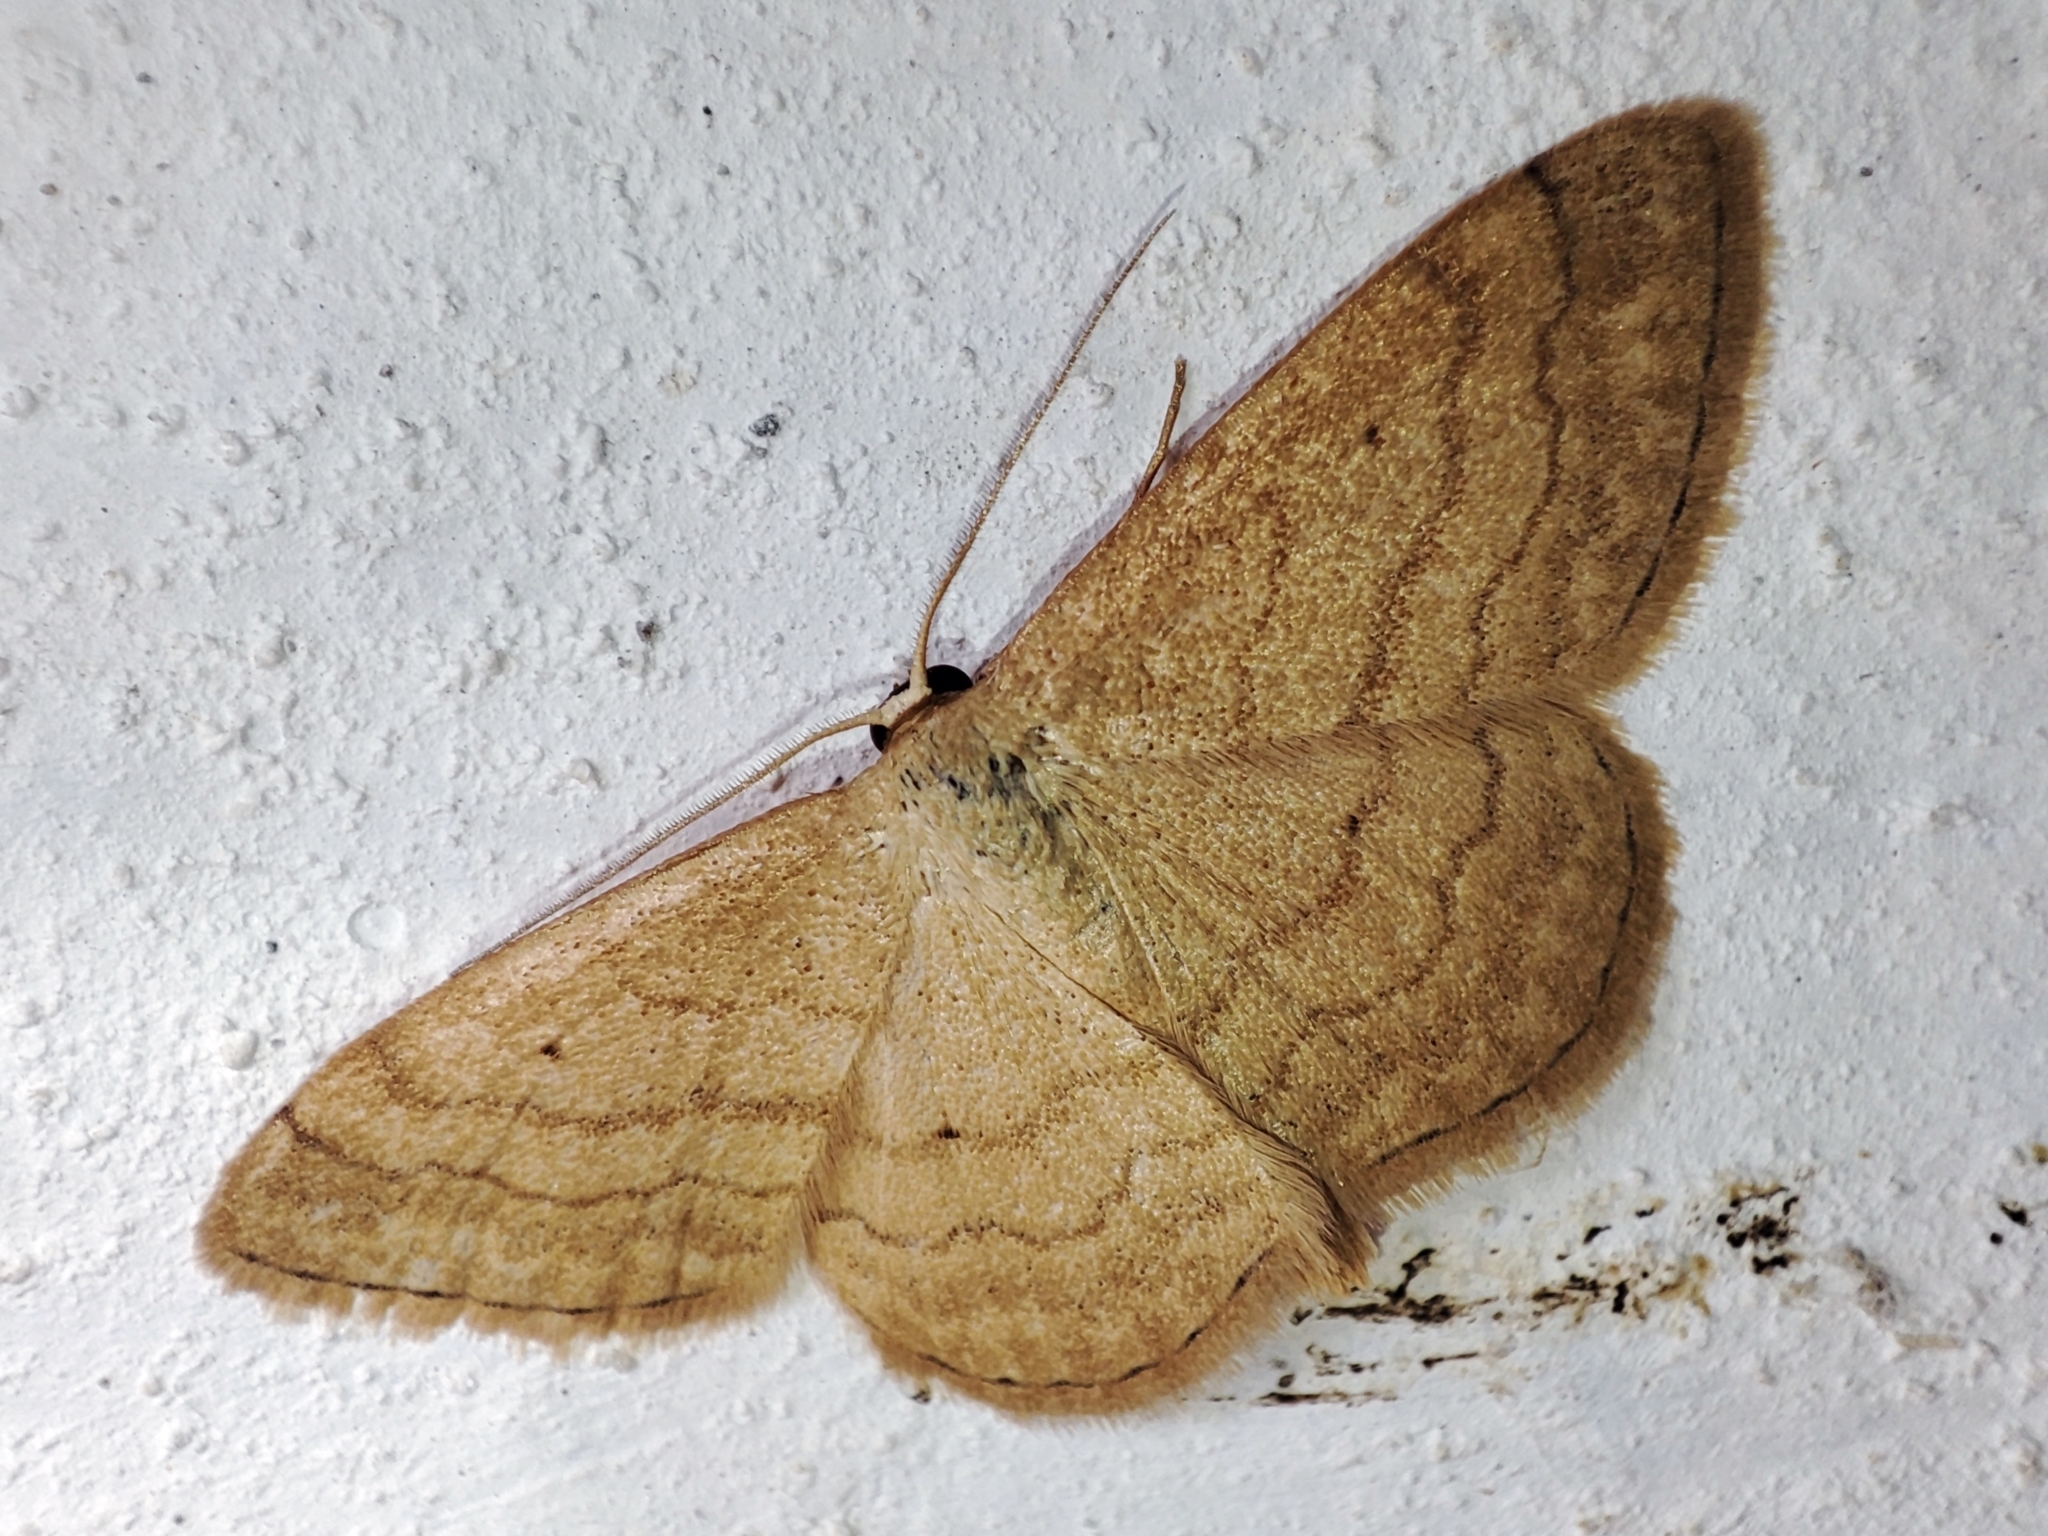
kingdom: Animalia
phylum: Arthropoda
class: Insecta
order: Lepidoptera
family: Geometridae
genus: Scopula
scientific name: Scopula rubiginata
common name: Tawny wave
